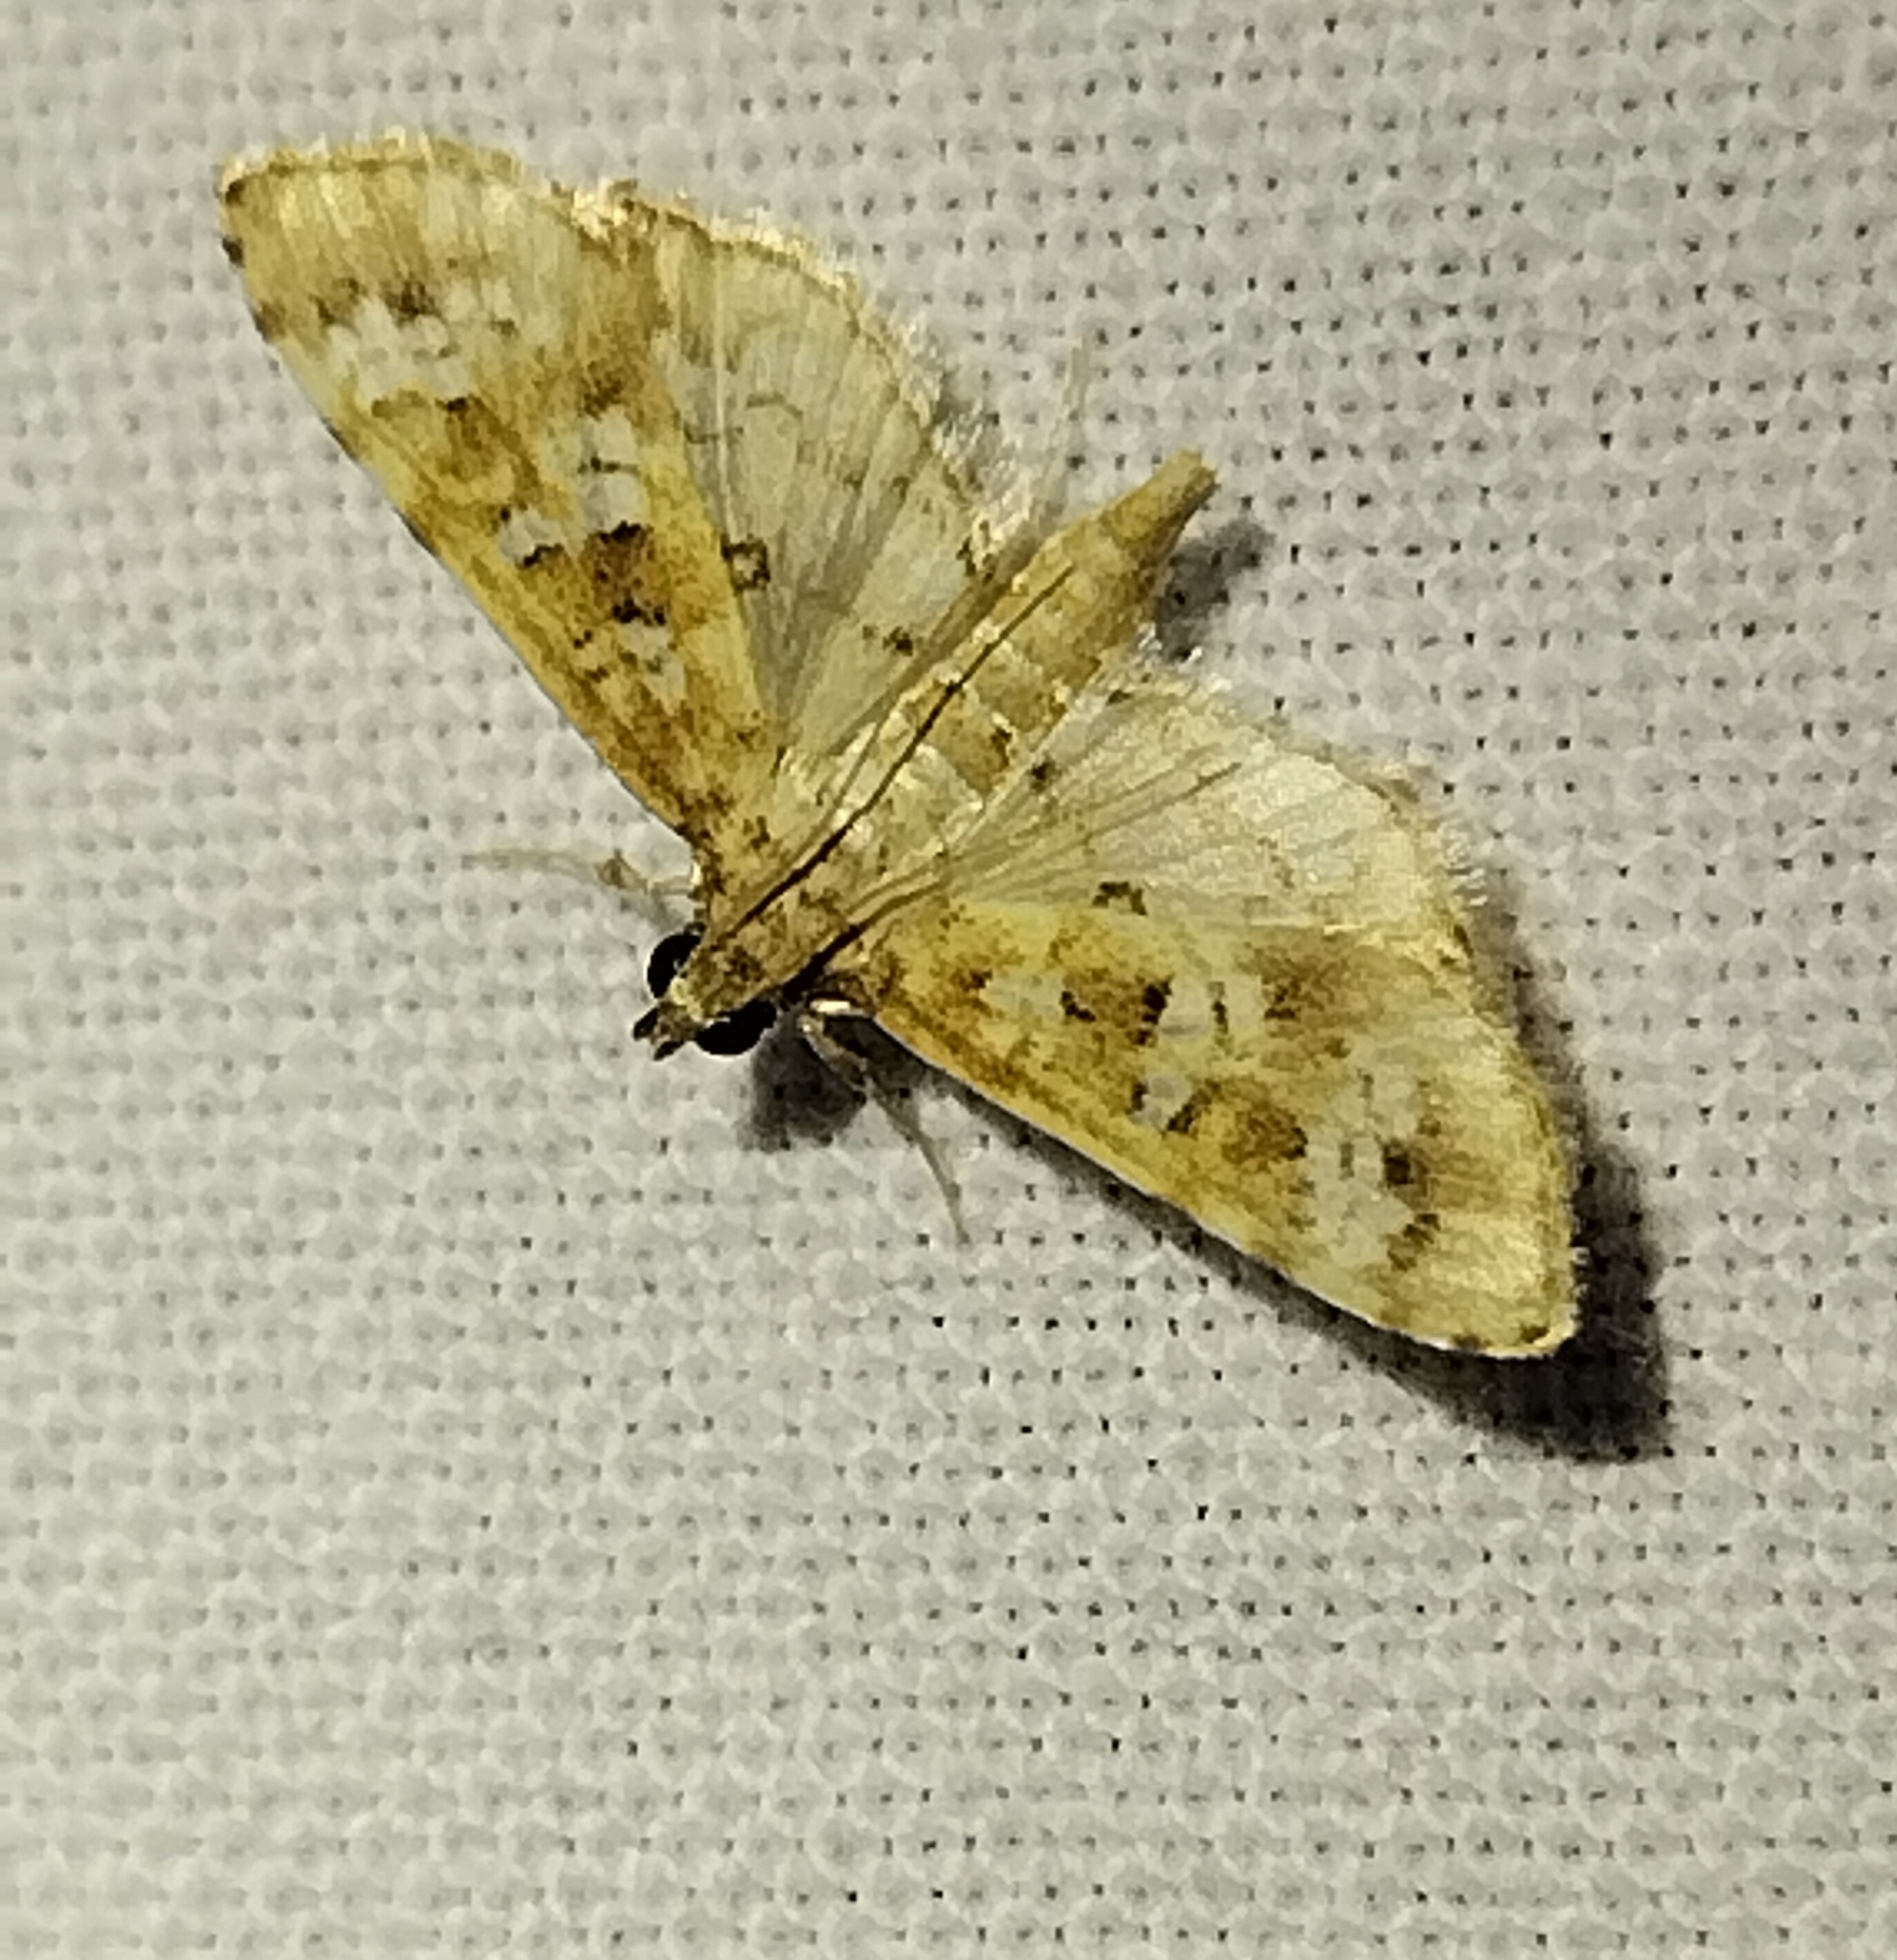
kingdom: Animalia
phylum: Arthropoda
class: Insecta
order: Lepidoptera
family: Crambidae
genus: Samea
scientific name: Samea multiplicalis
